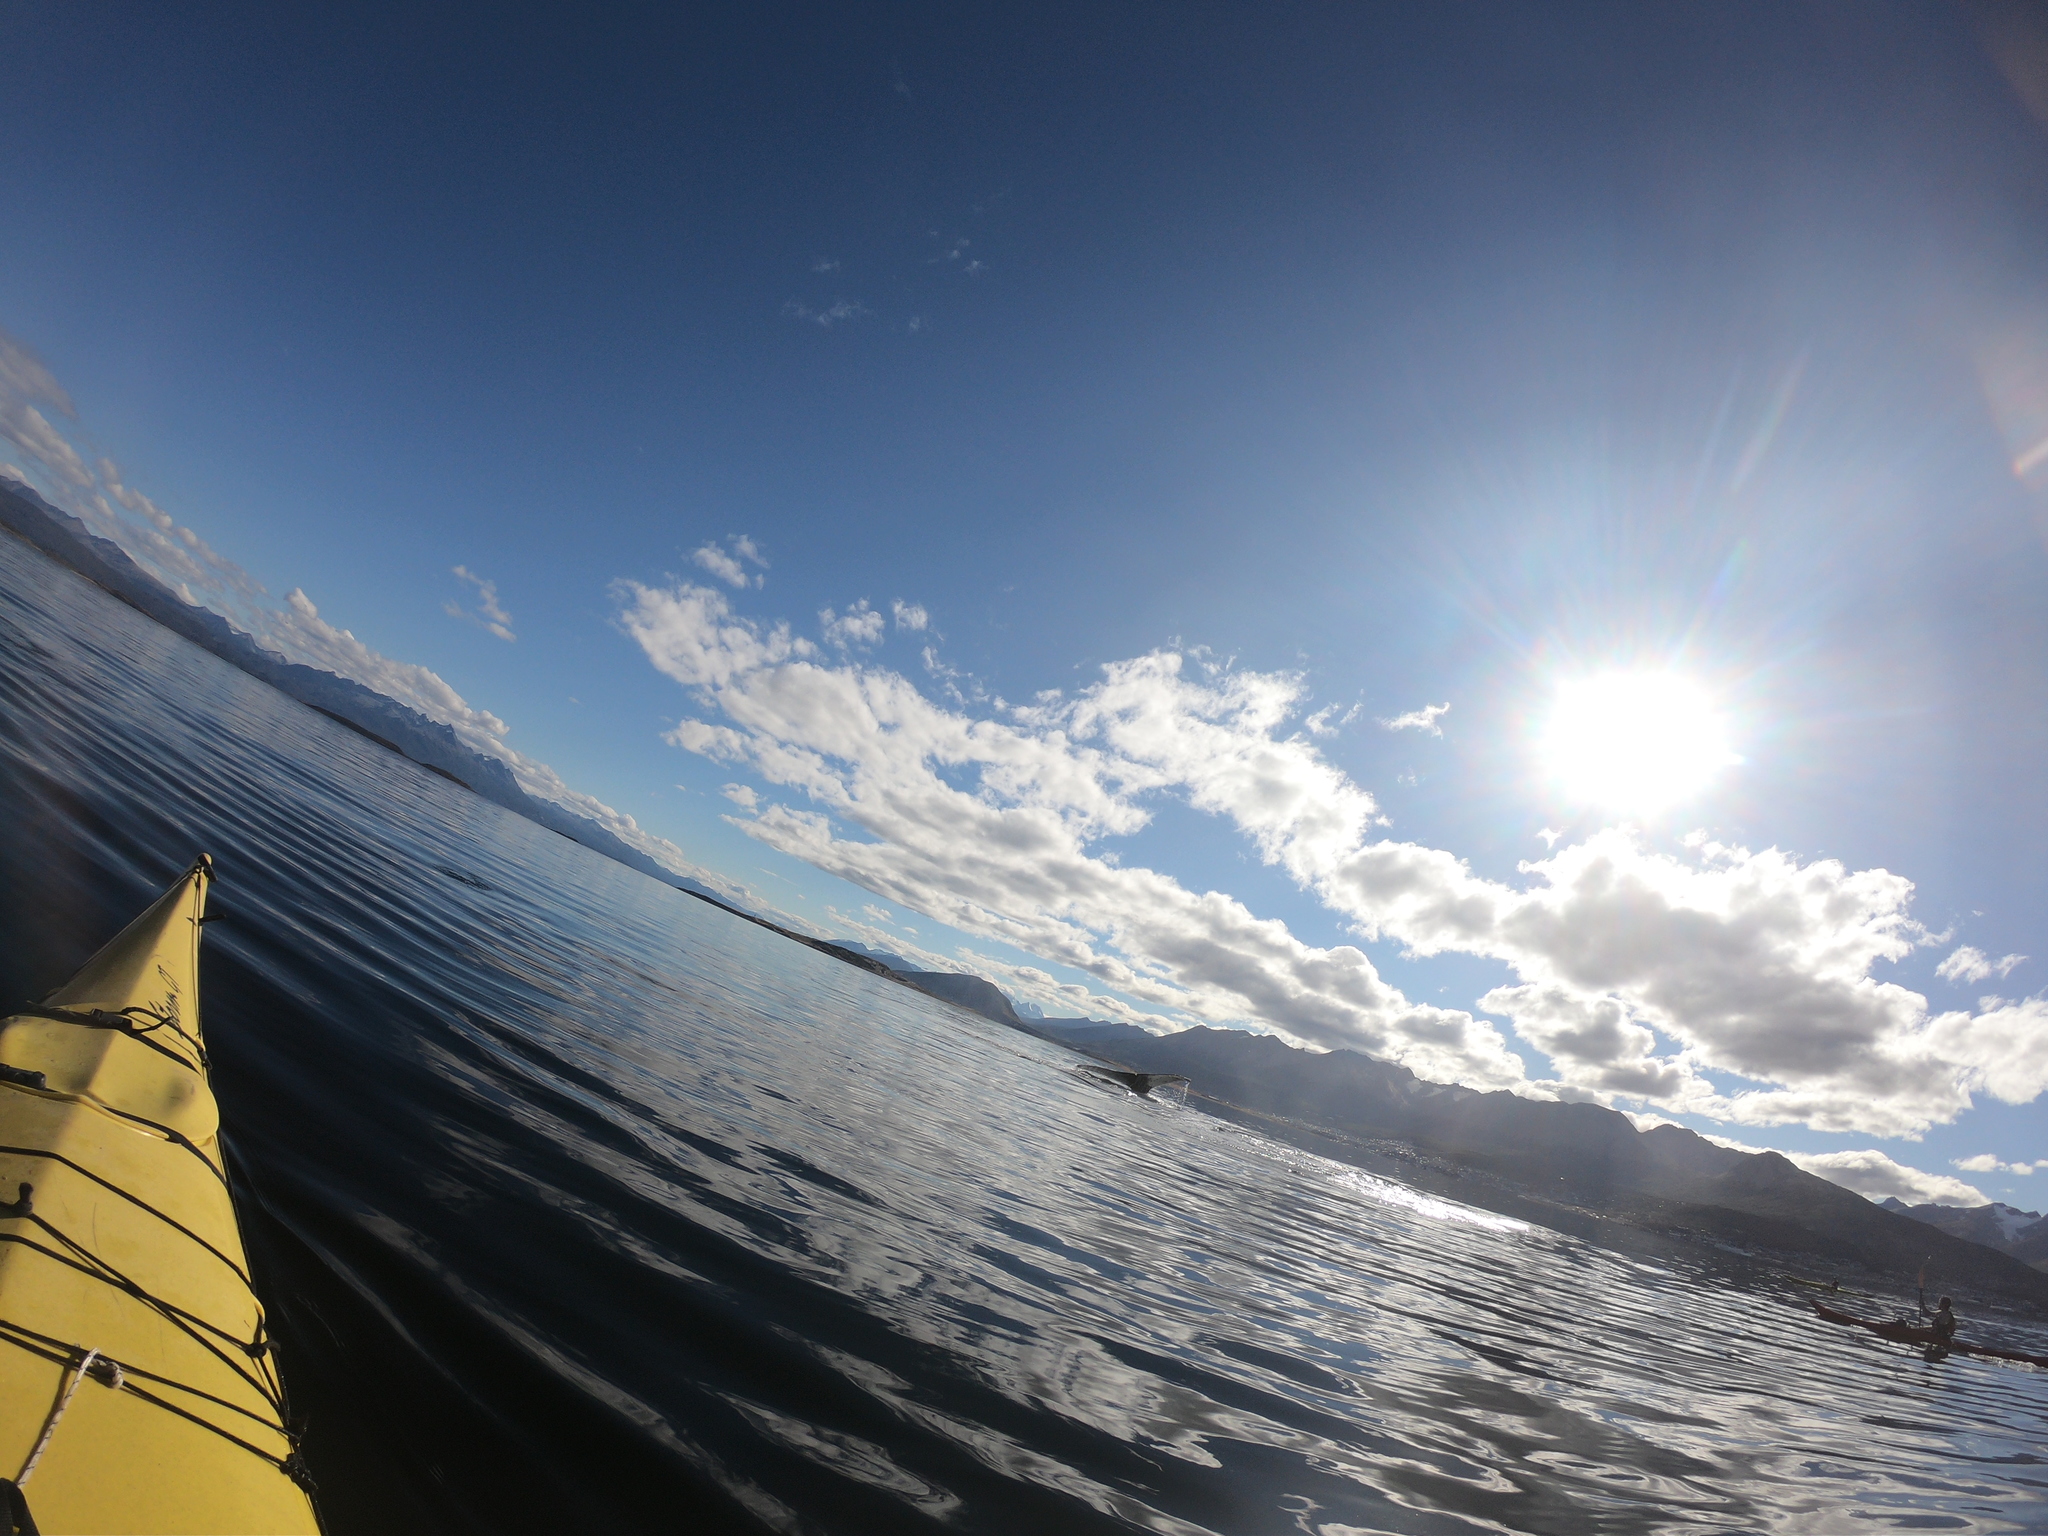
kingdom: Animalia
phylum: Chordata
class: Mammalia
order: Cetacea
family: Balaenopteridae
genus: Megaptera
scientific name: Megaptera novaeangliae
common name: Humpback whale
